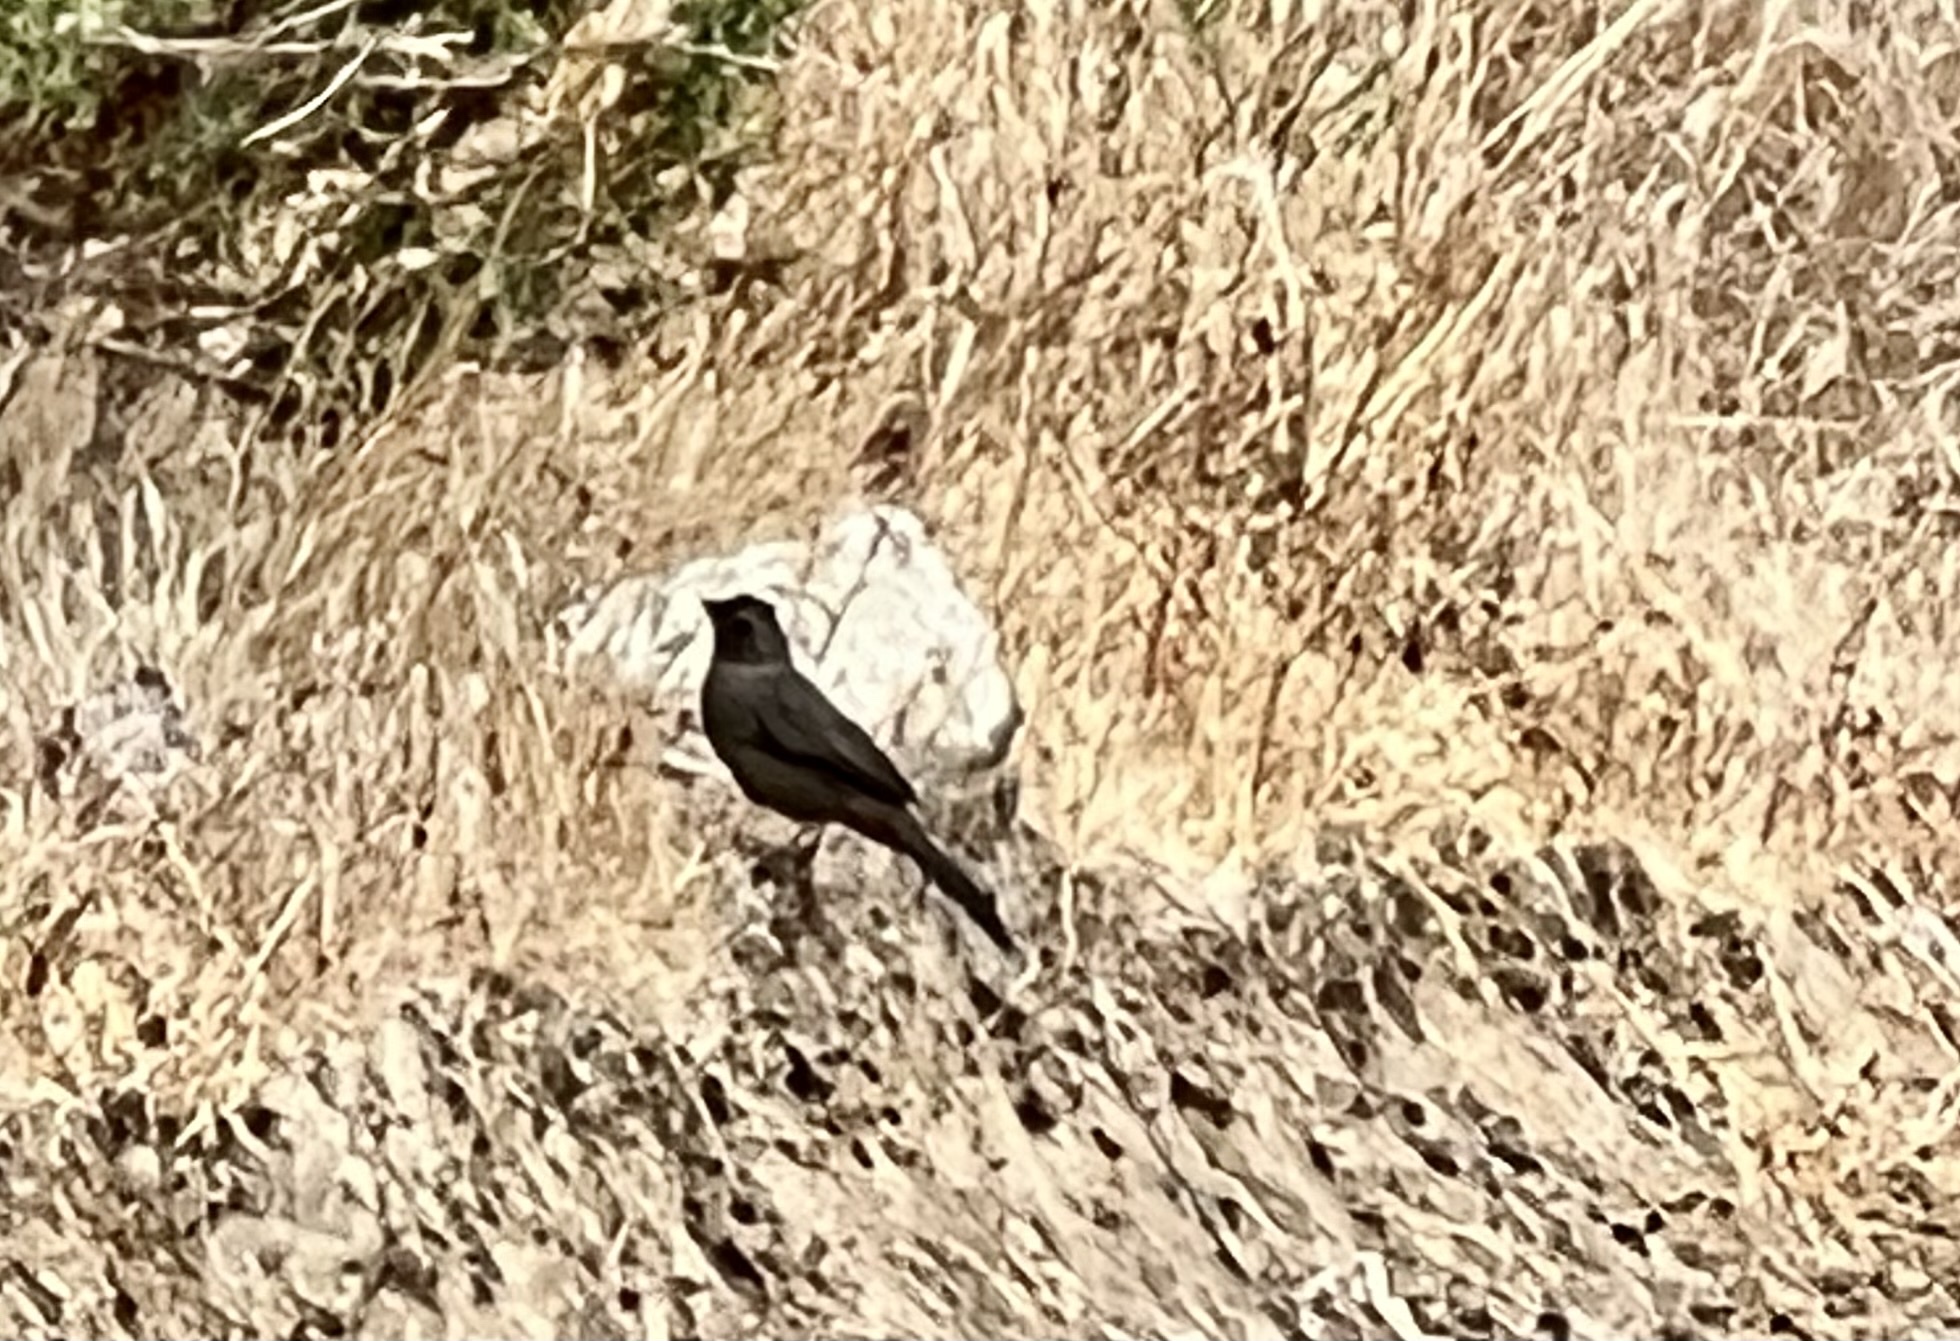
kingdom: Animalia
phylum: Chordata
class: Aves
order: Passeriformes
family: Passerellidae
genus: Melozone
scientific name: Melozone crissalis
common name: California towhee
